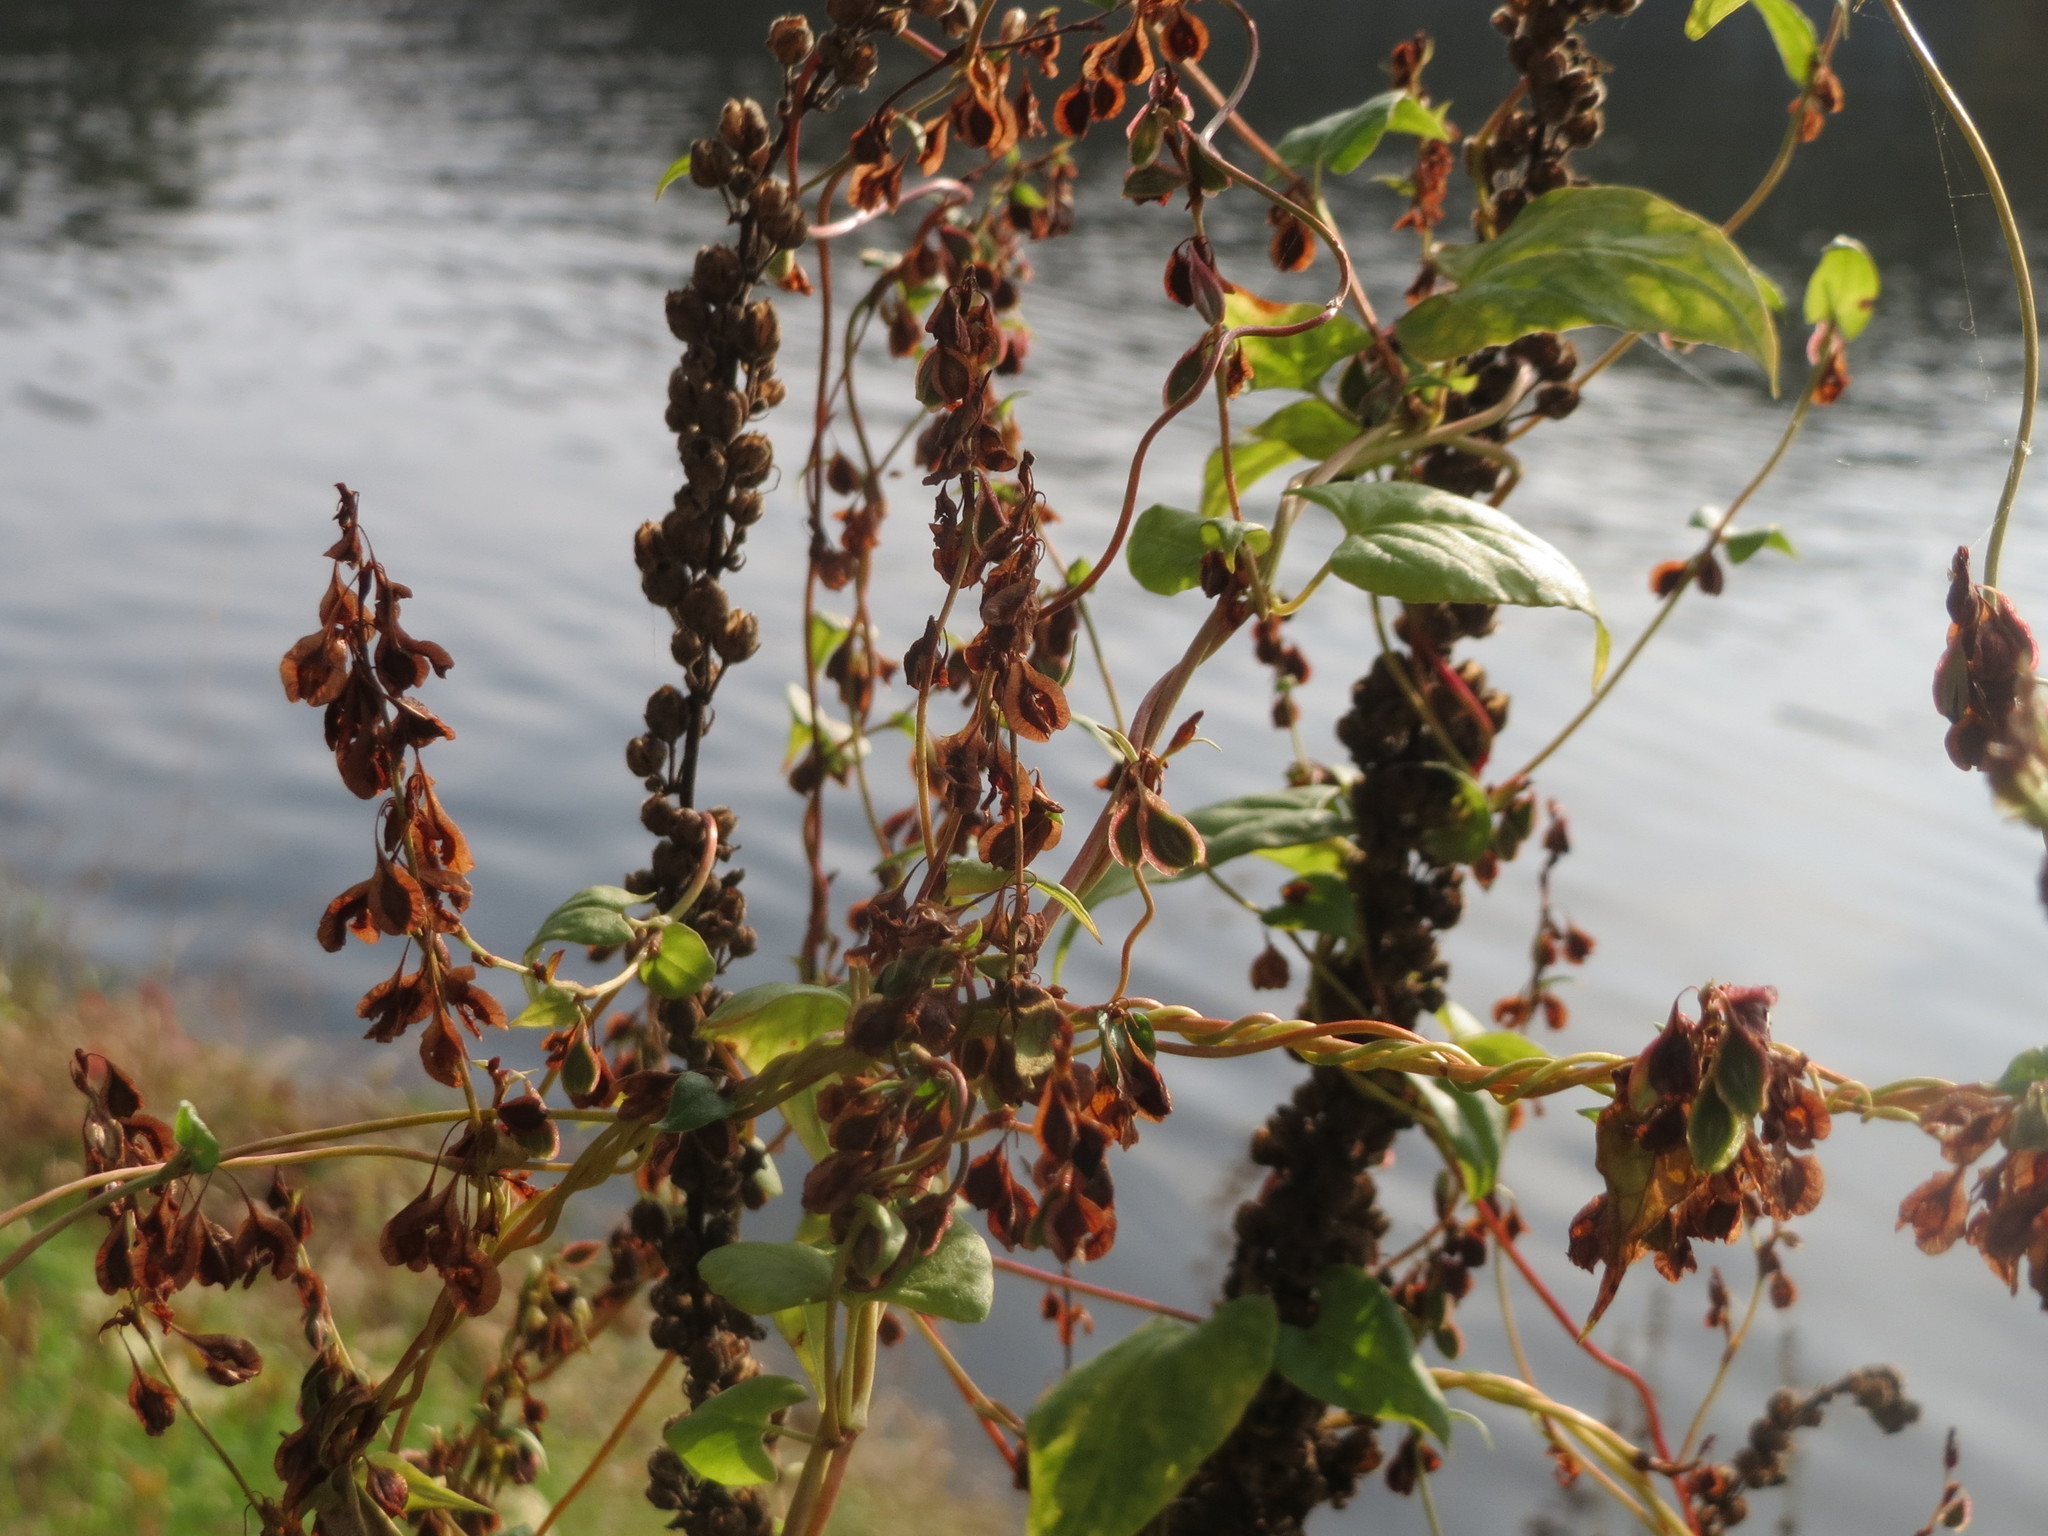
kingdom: Plantae
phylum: Tracheophyta
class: Magnoliopsida
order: Caryophyllales
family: Polygonaceae
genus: Fallopia
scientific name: Fallopia dumetorum
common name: Copse-bindweed
